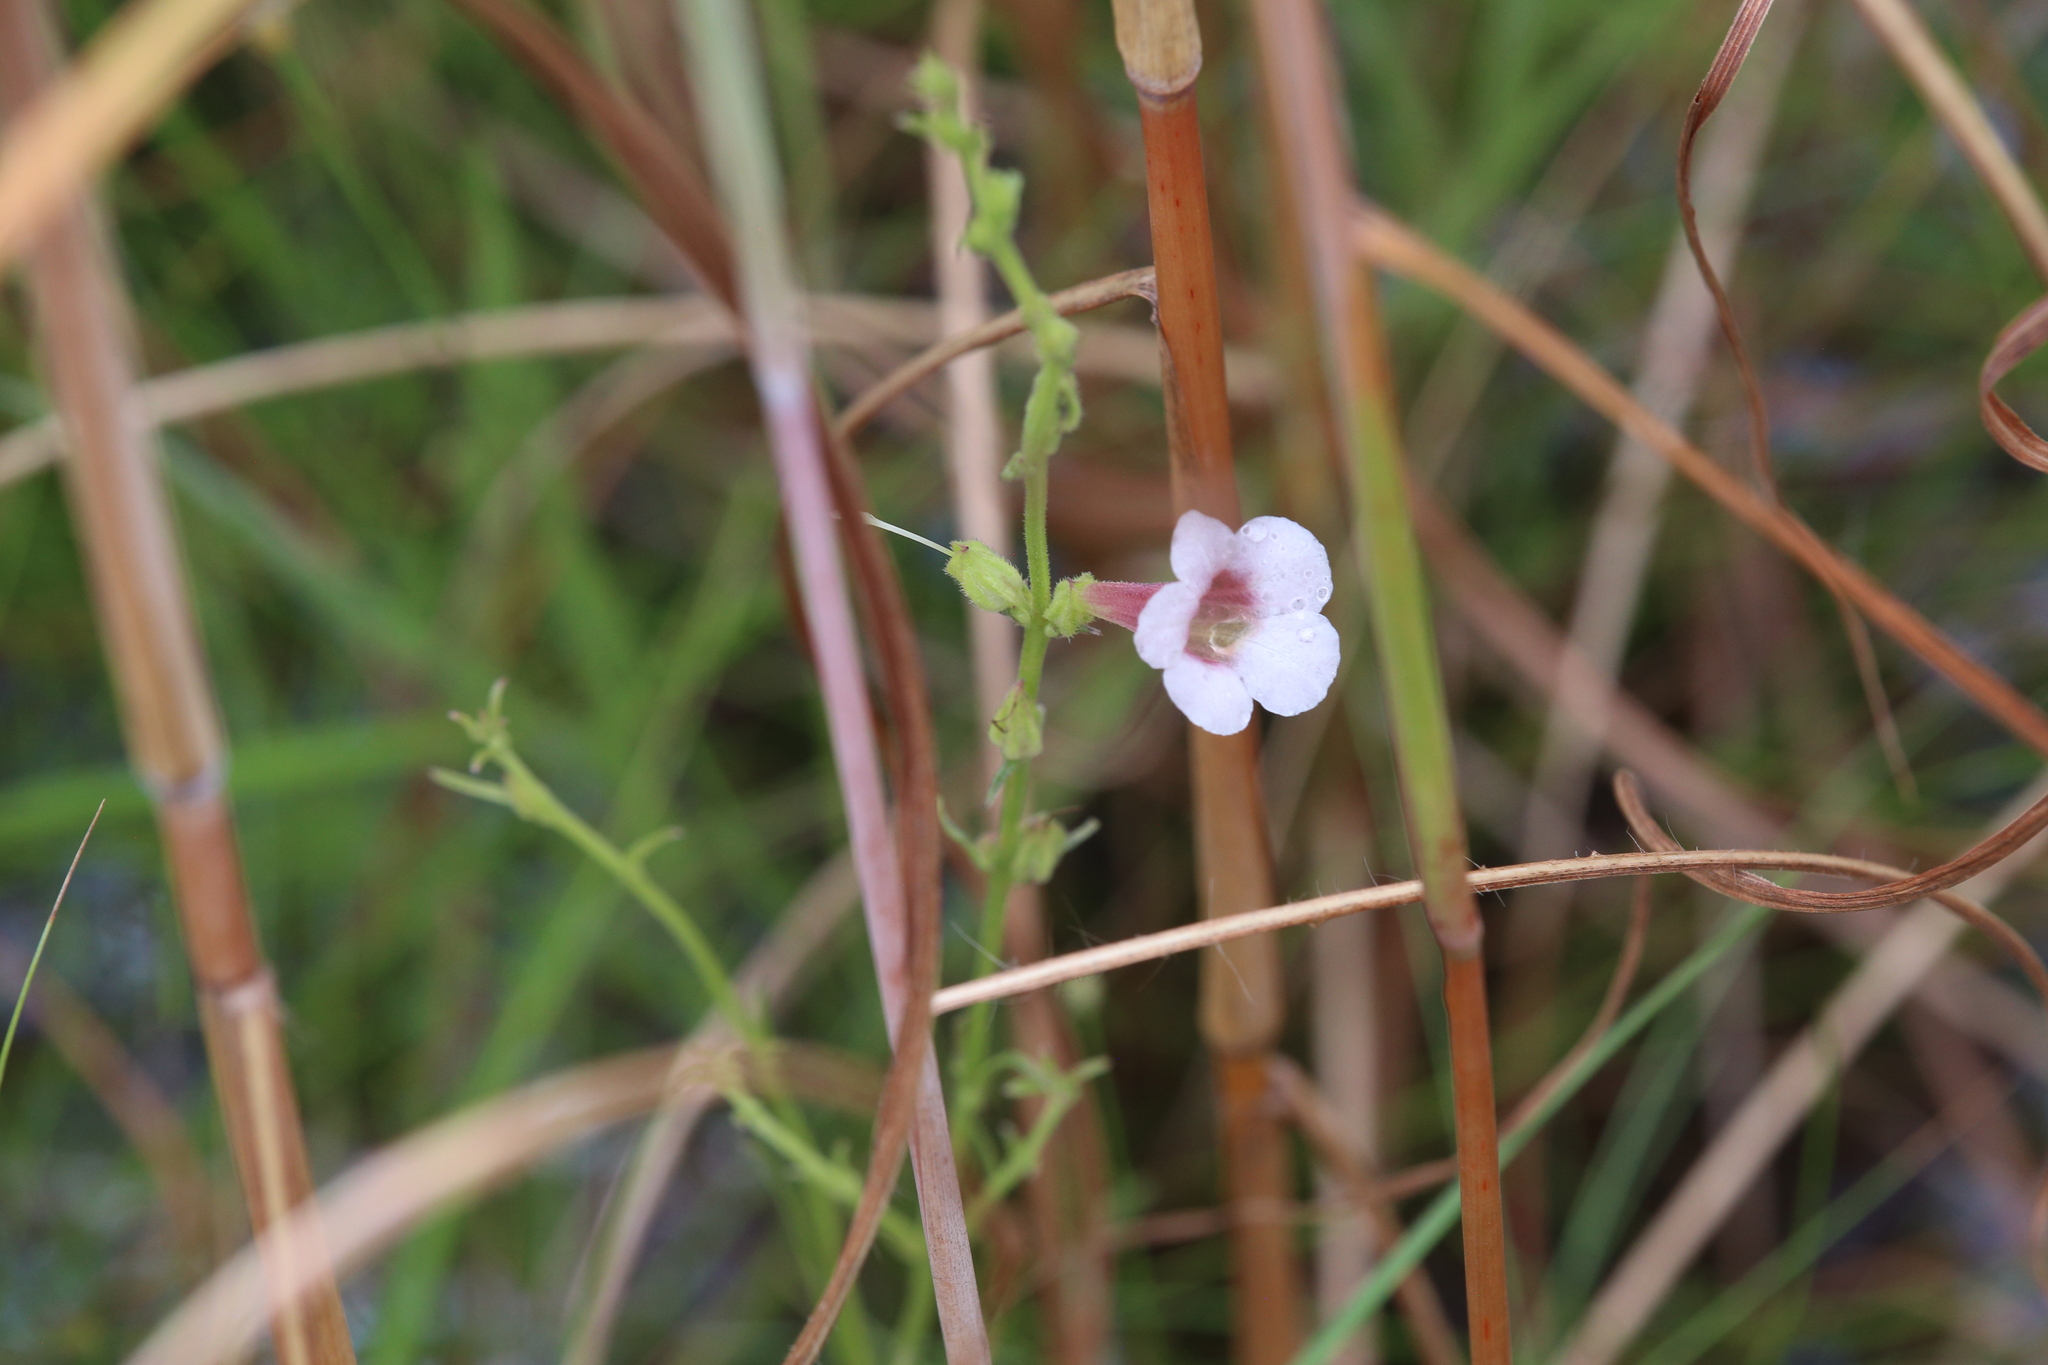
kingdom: Plantae
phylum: Tracheophyta
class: Magnoliopsida
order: Lamiales
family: Orobanchaceae
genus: Centranthera
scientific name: Centranthera cochinchinensis
